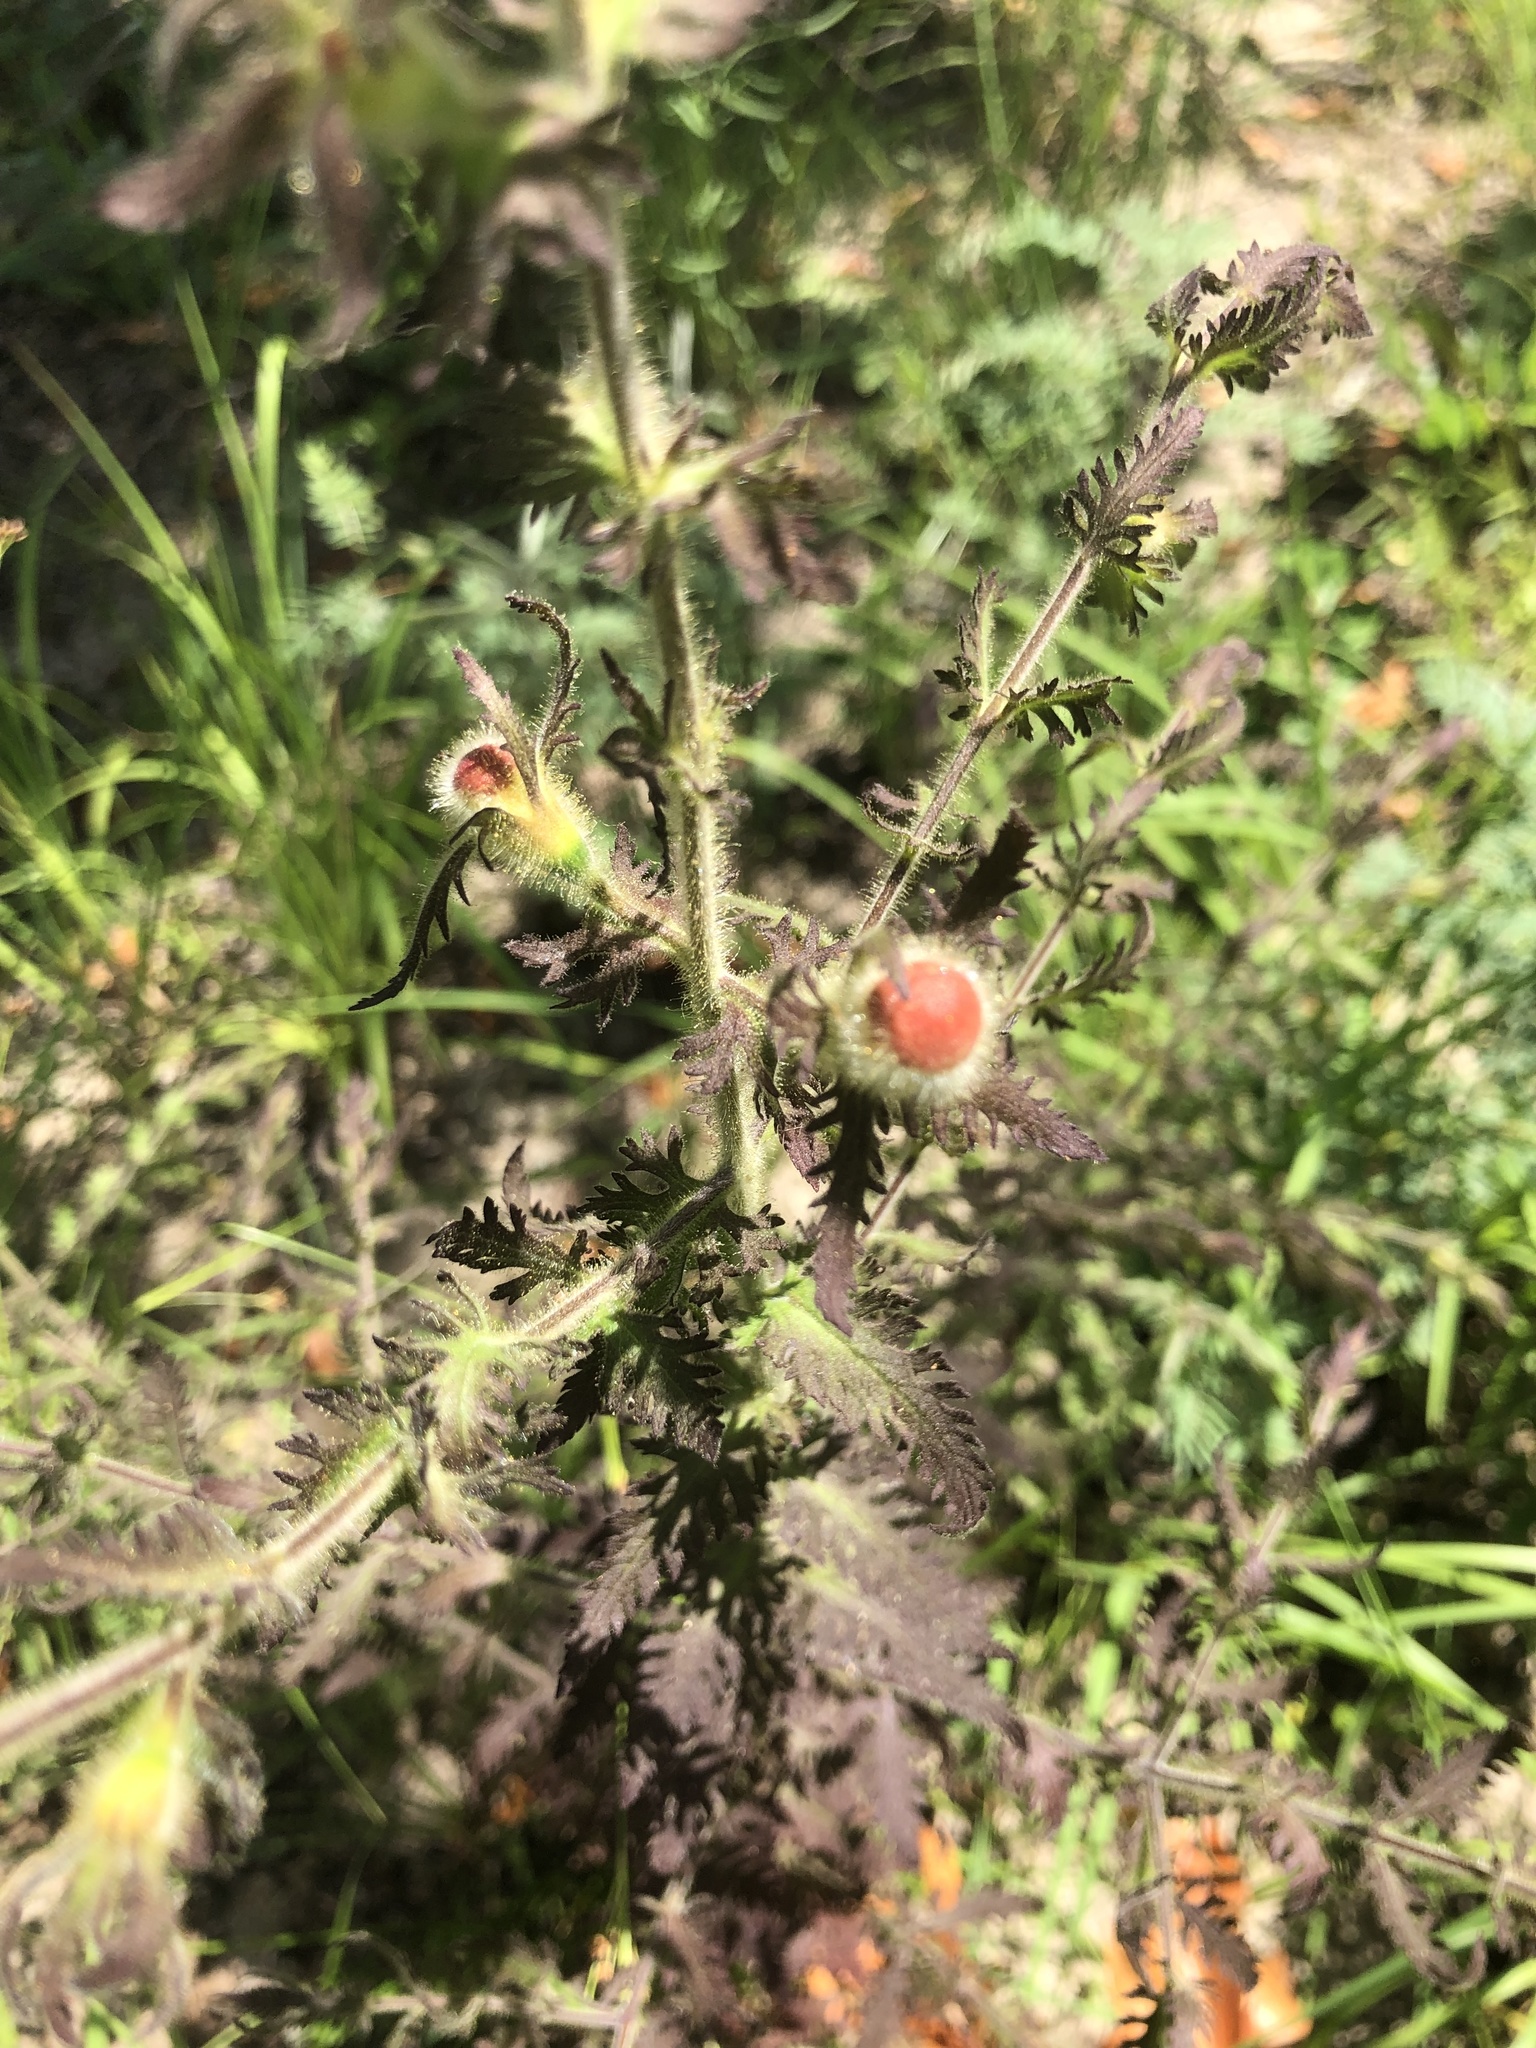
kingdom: Plantae
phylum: Tracheophyta
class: Magnoliopsida
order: Lamiales
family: Orobanchaceae
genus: Aureolaria
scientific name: Aureolaria pectinata
